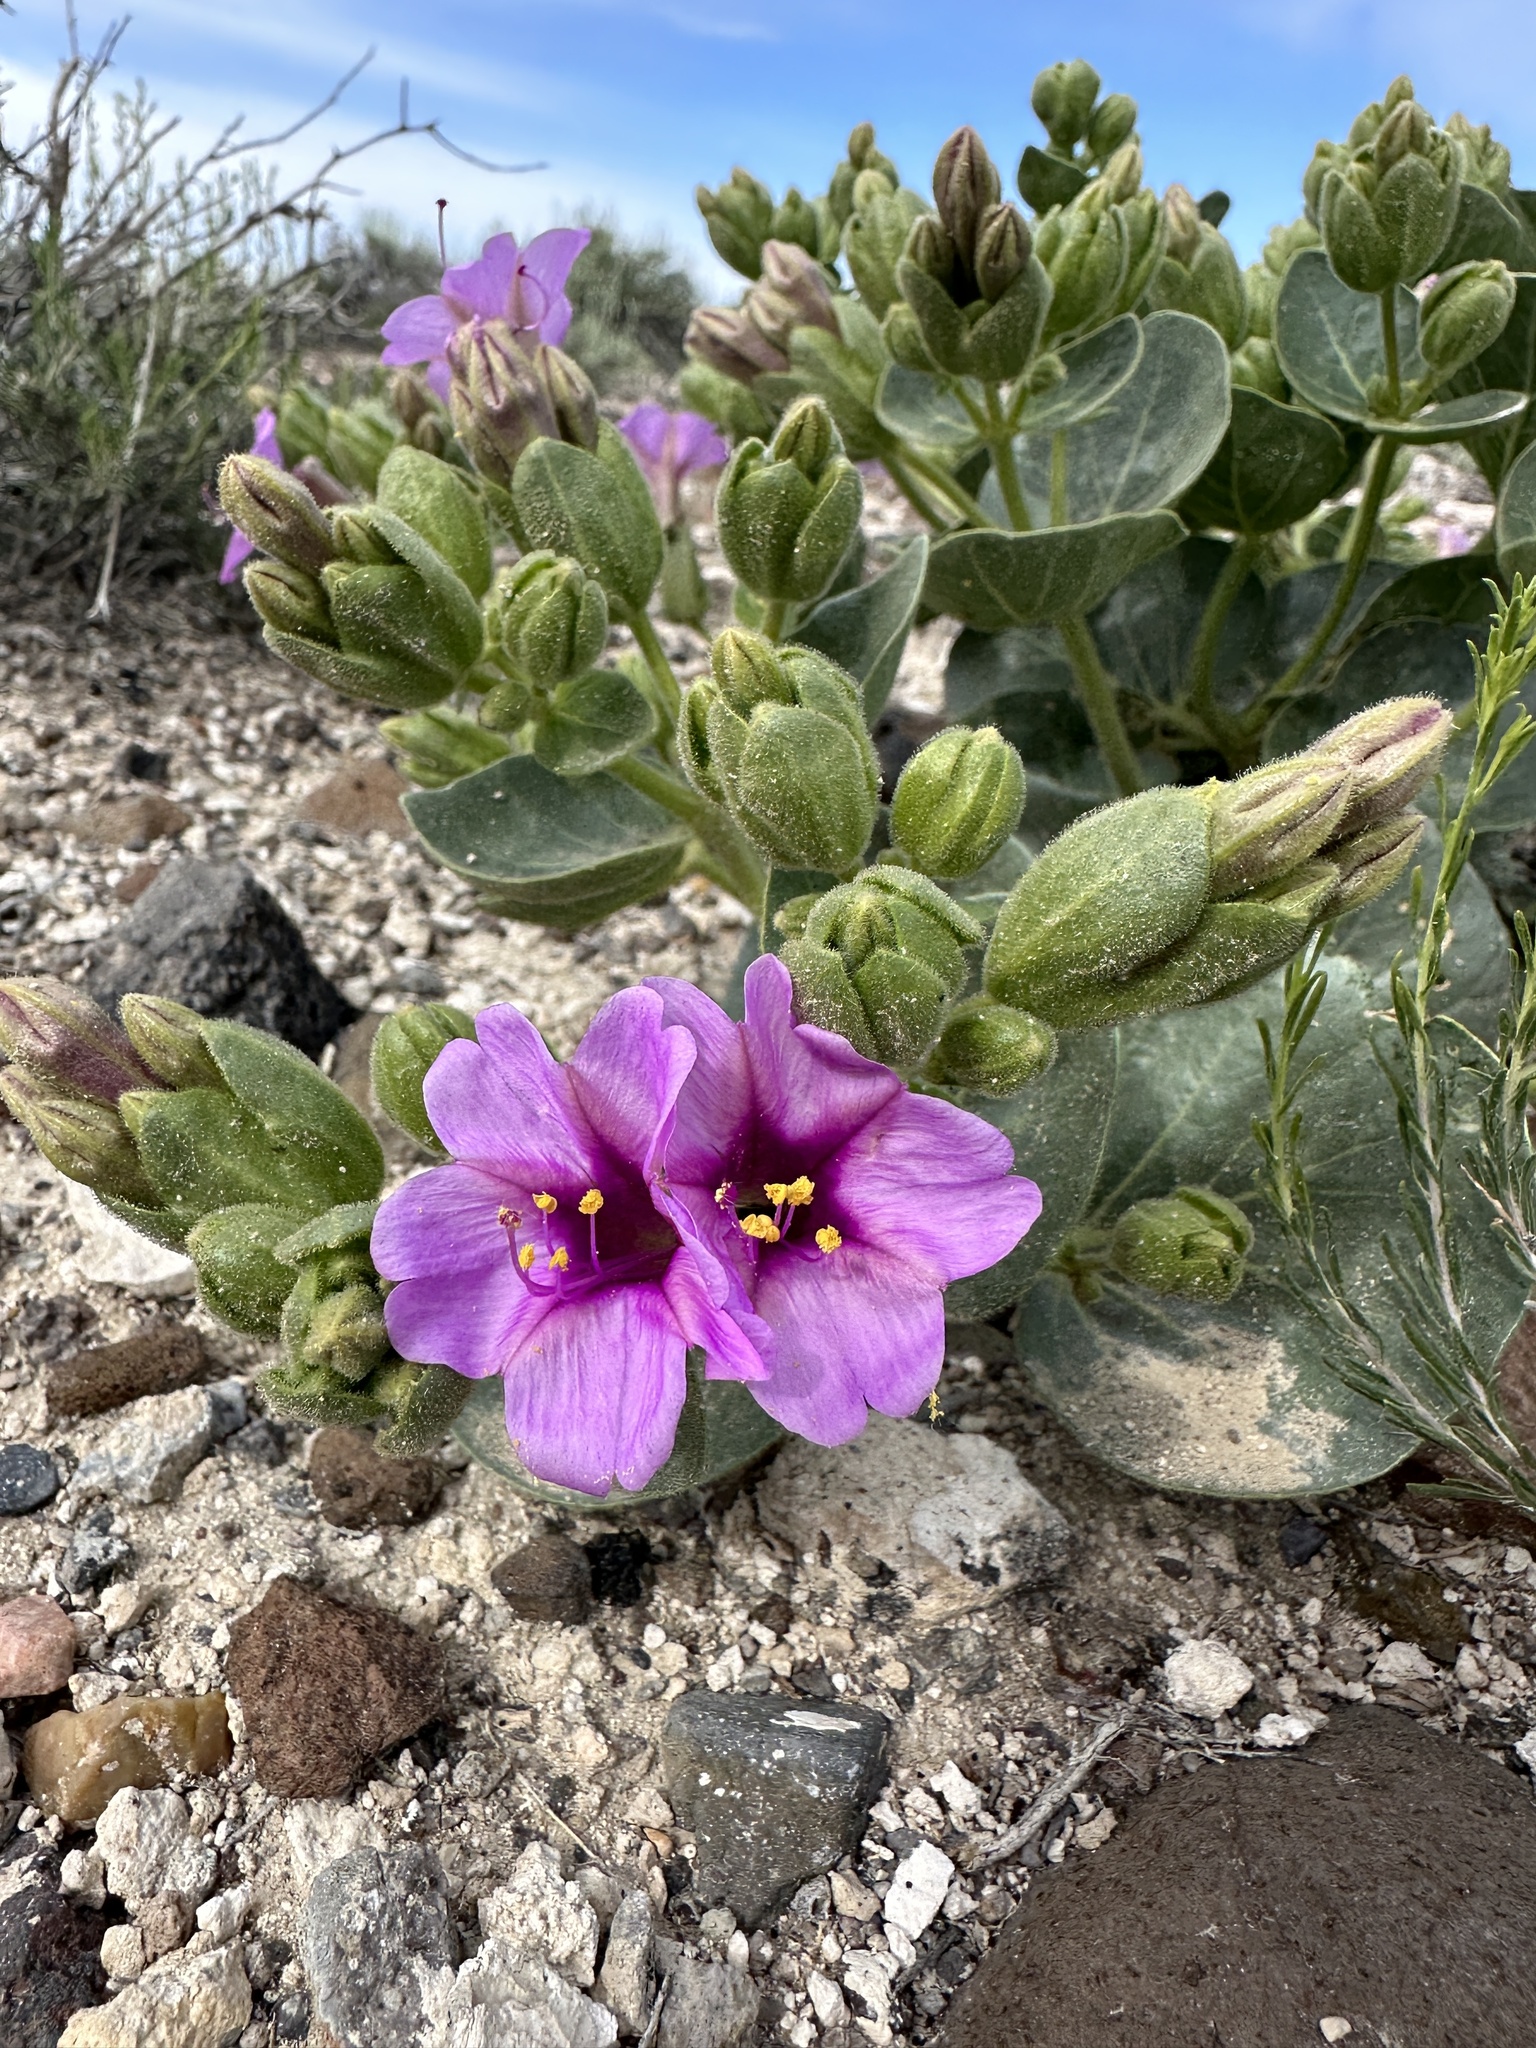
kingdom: Plantae
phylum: Tracheophyta
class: Magnoliopsida
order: Caryophyllales
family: Nyctaginaceae
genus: Mirabilis
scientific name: Mirabilis multiflora
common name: Froebel's four-o'clock
